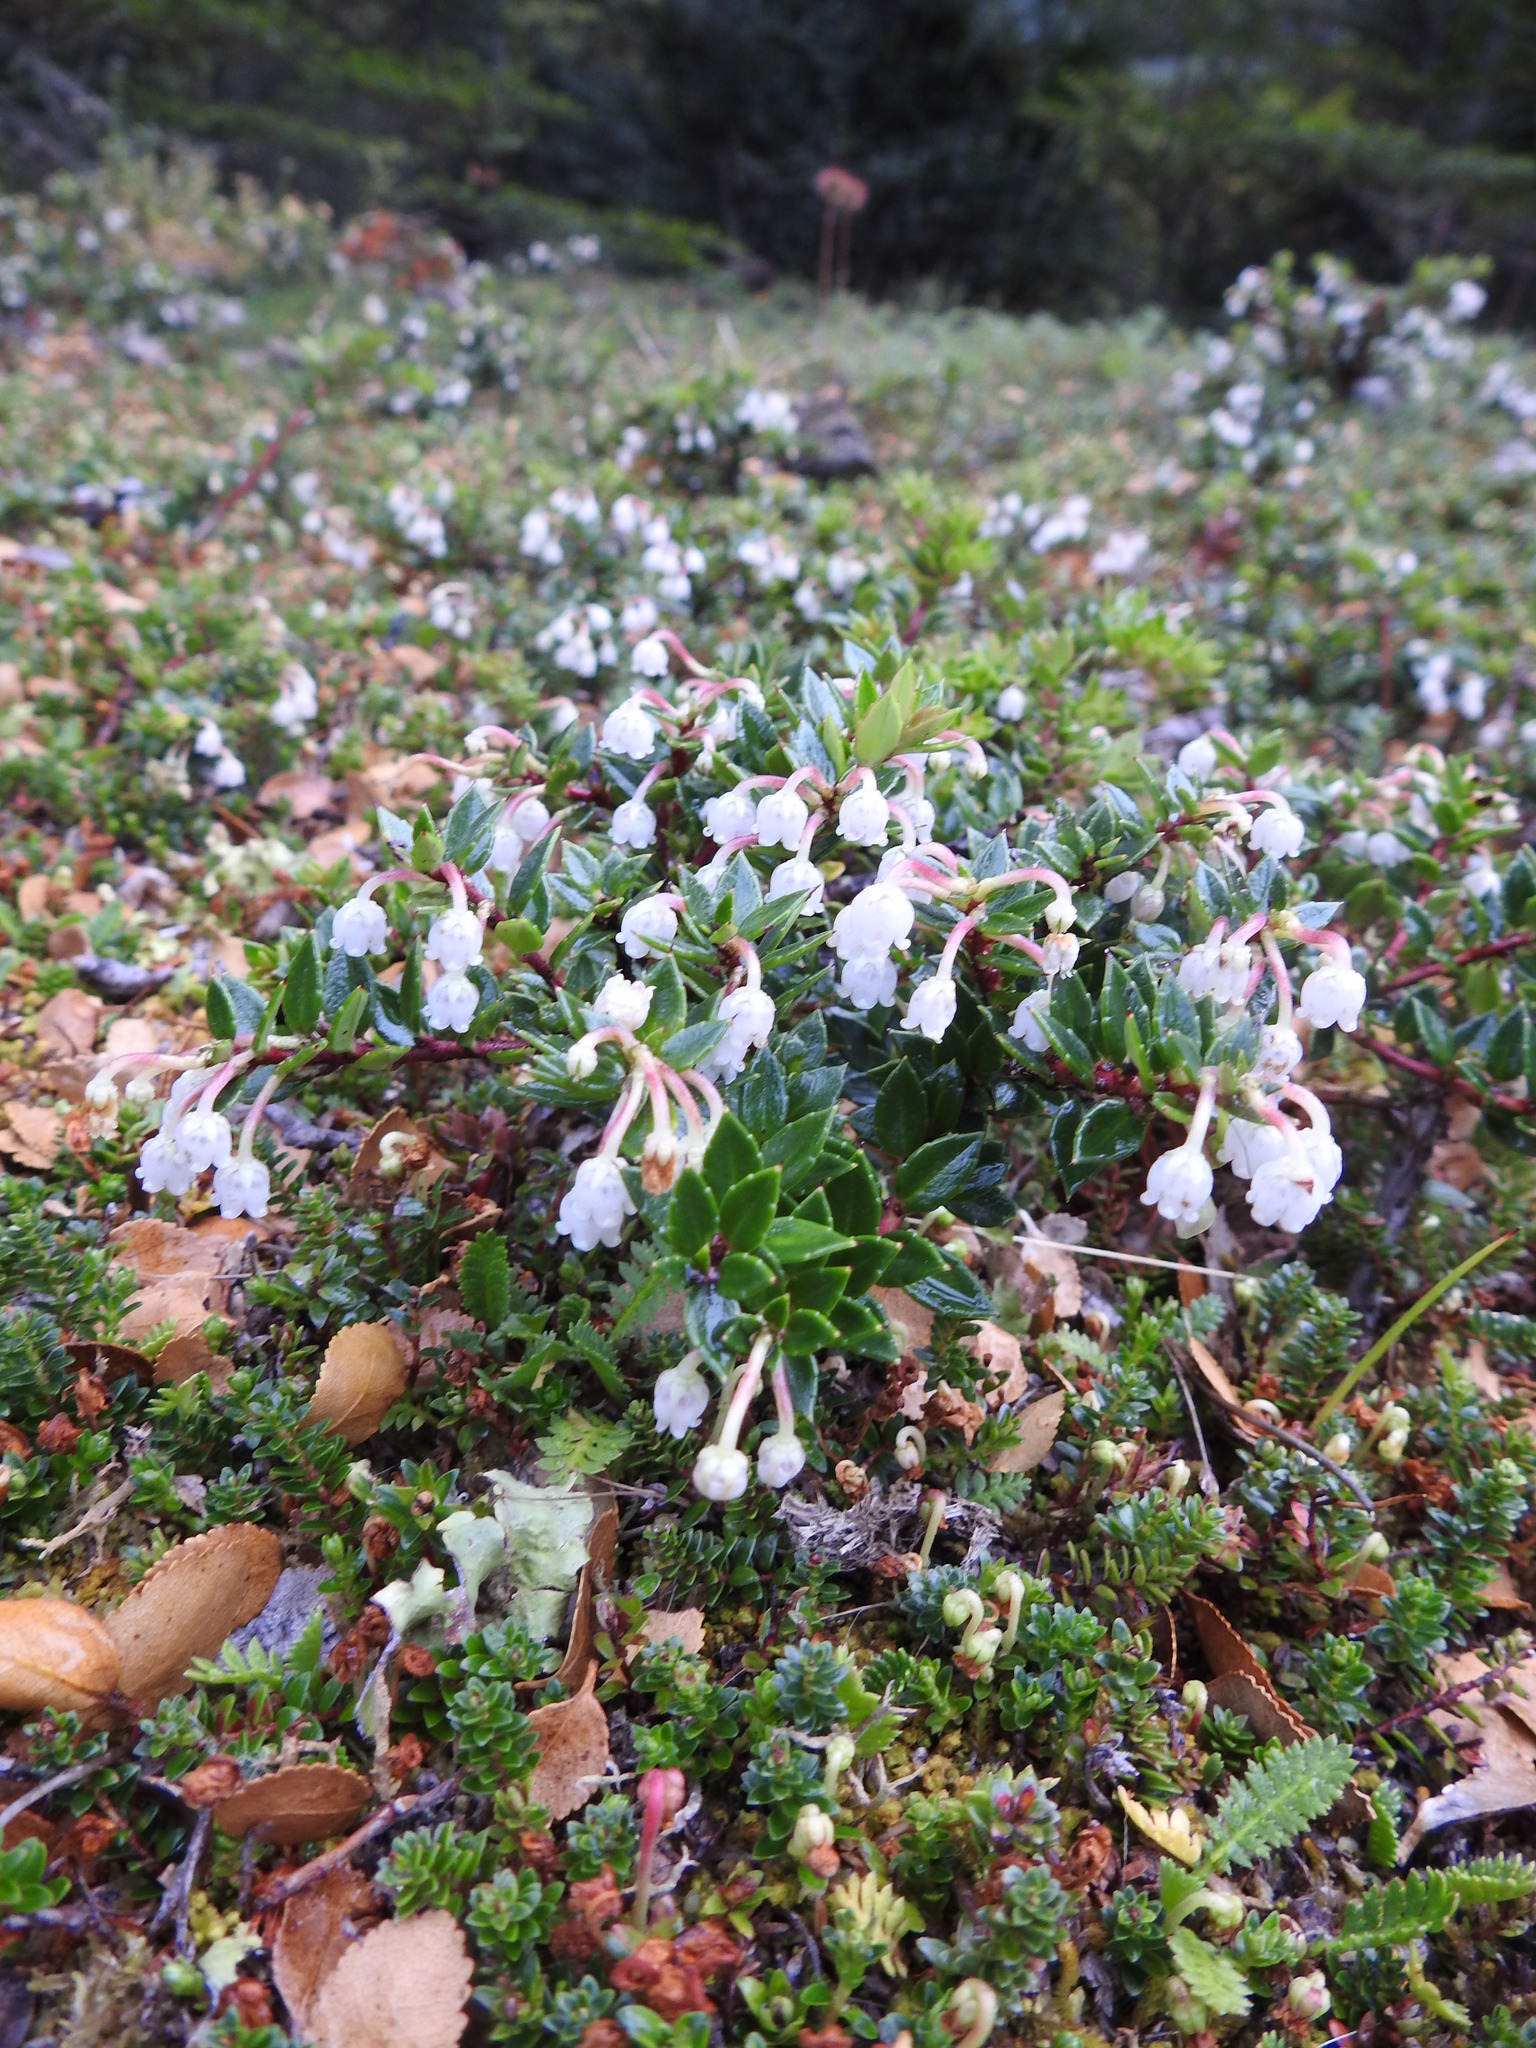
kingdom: Plantae
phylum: Tracheophyta
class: Magnoliopsida
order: Ericales
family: Ericaceae
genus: Gaultheria
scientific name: Gaultheria mucronata
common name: Prickly heath
